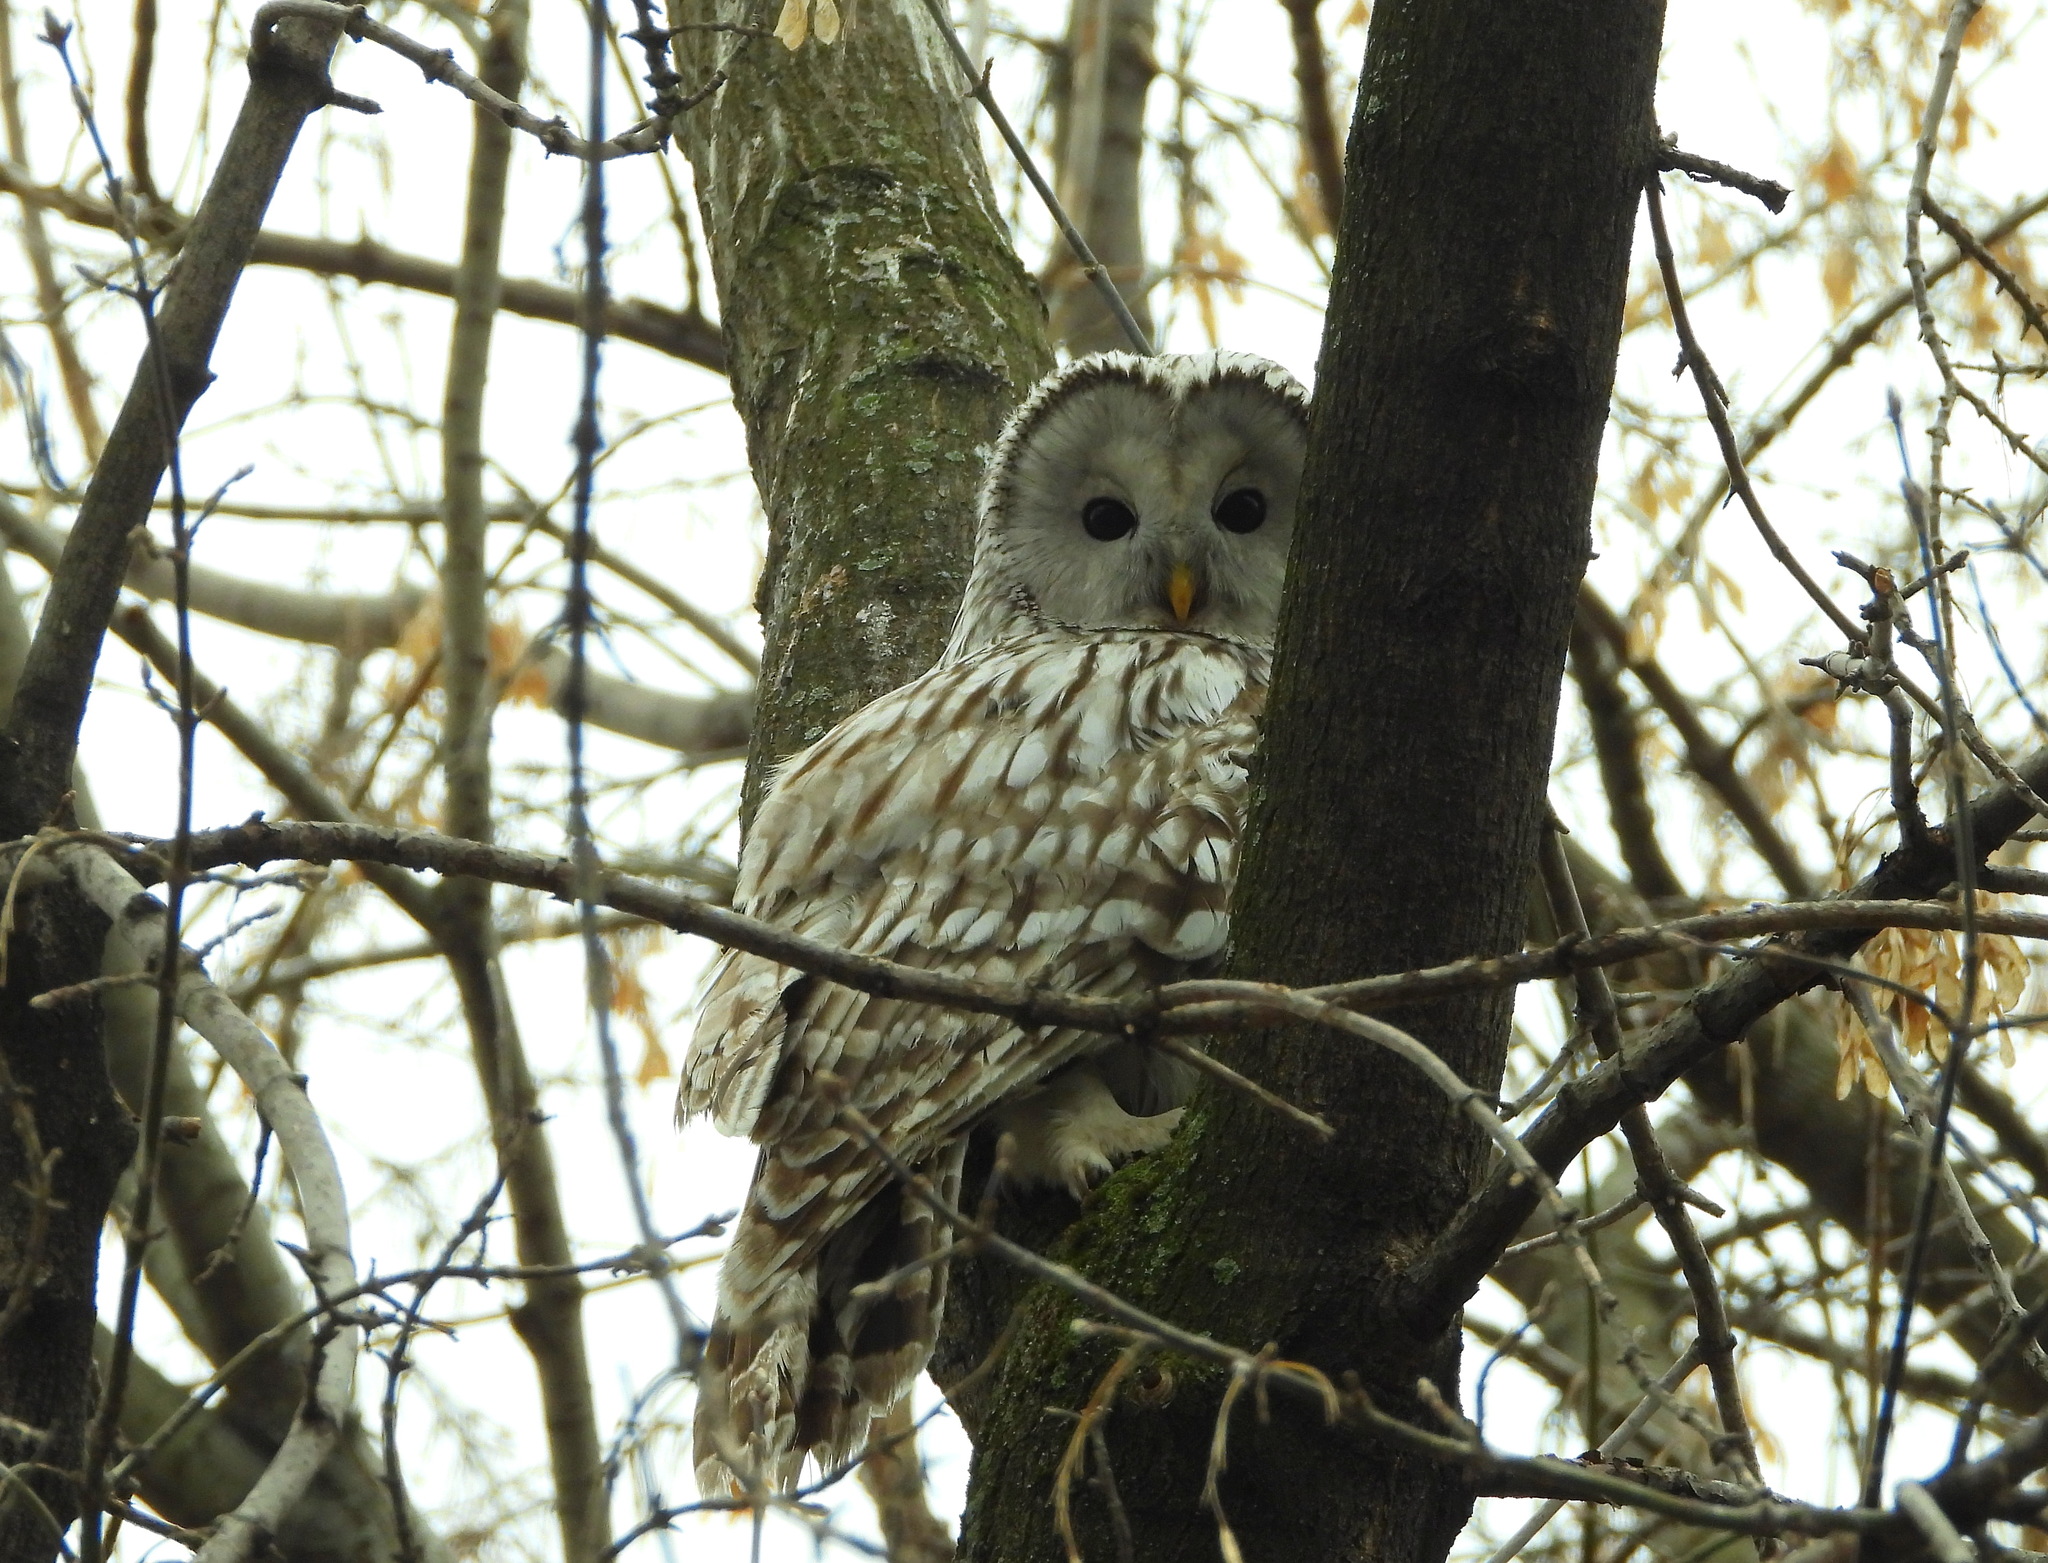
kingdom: Animalia
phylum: Chordata
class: Aves
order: Strigiformes
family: Strigidae
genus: Strix
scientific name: Strix uralensis
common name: Ural owl
